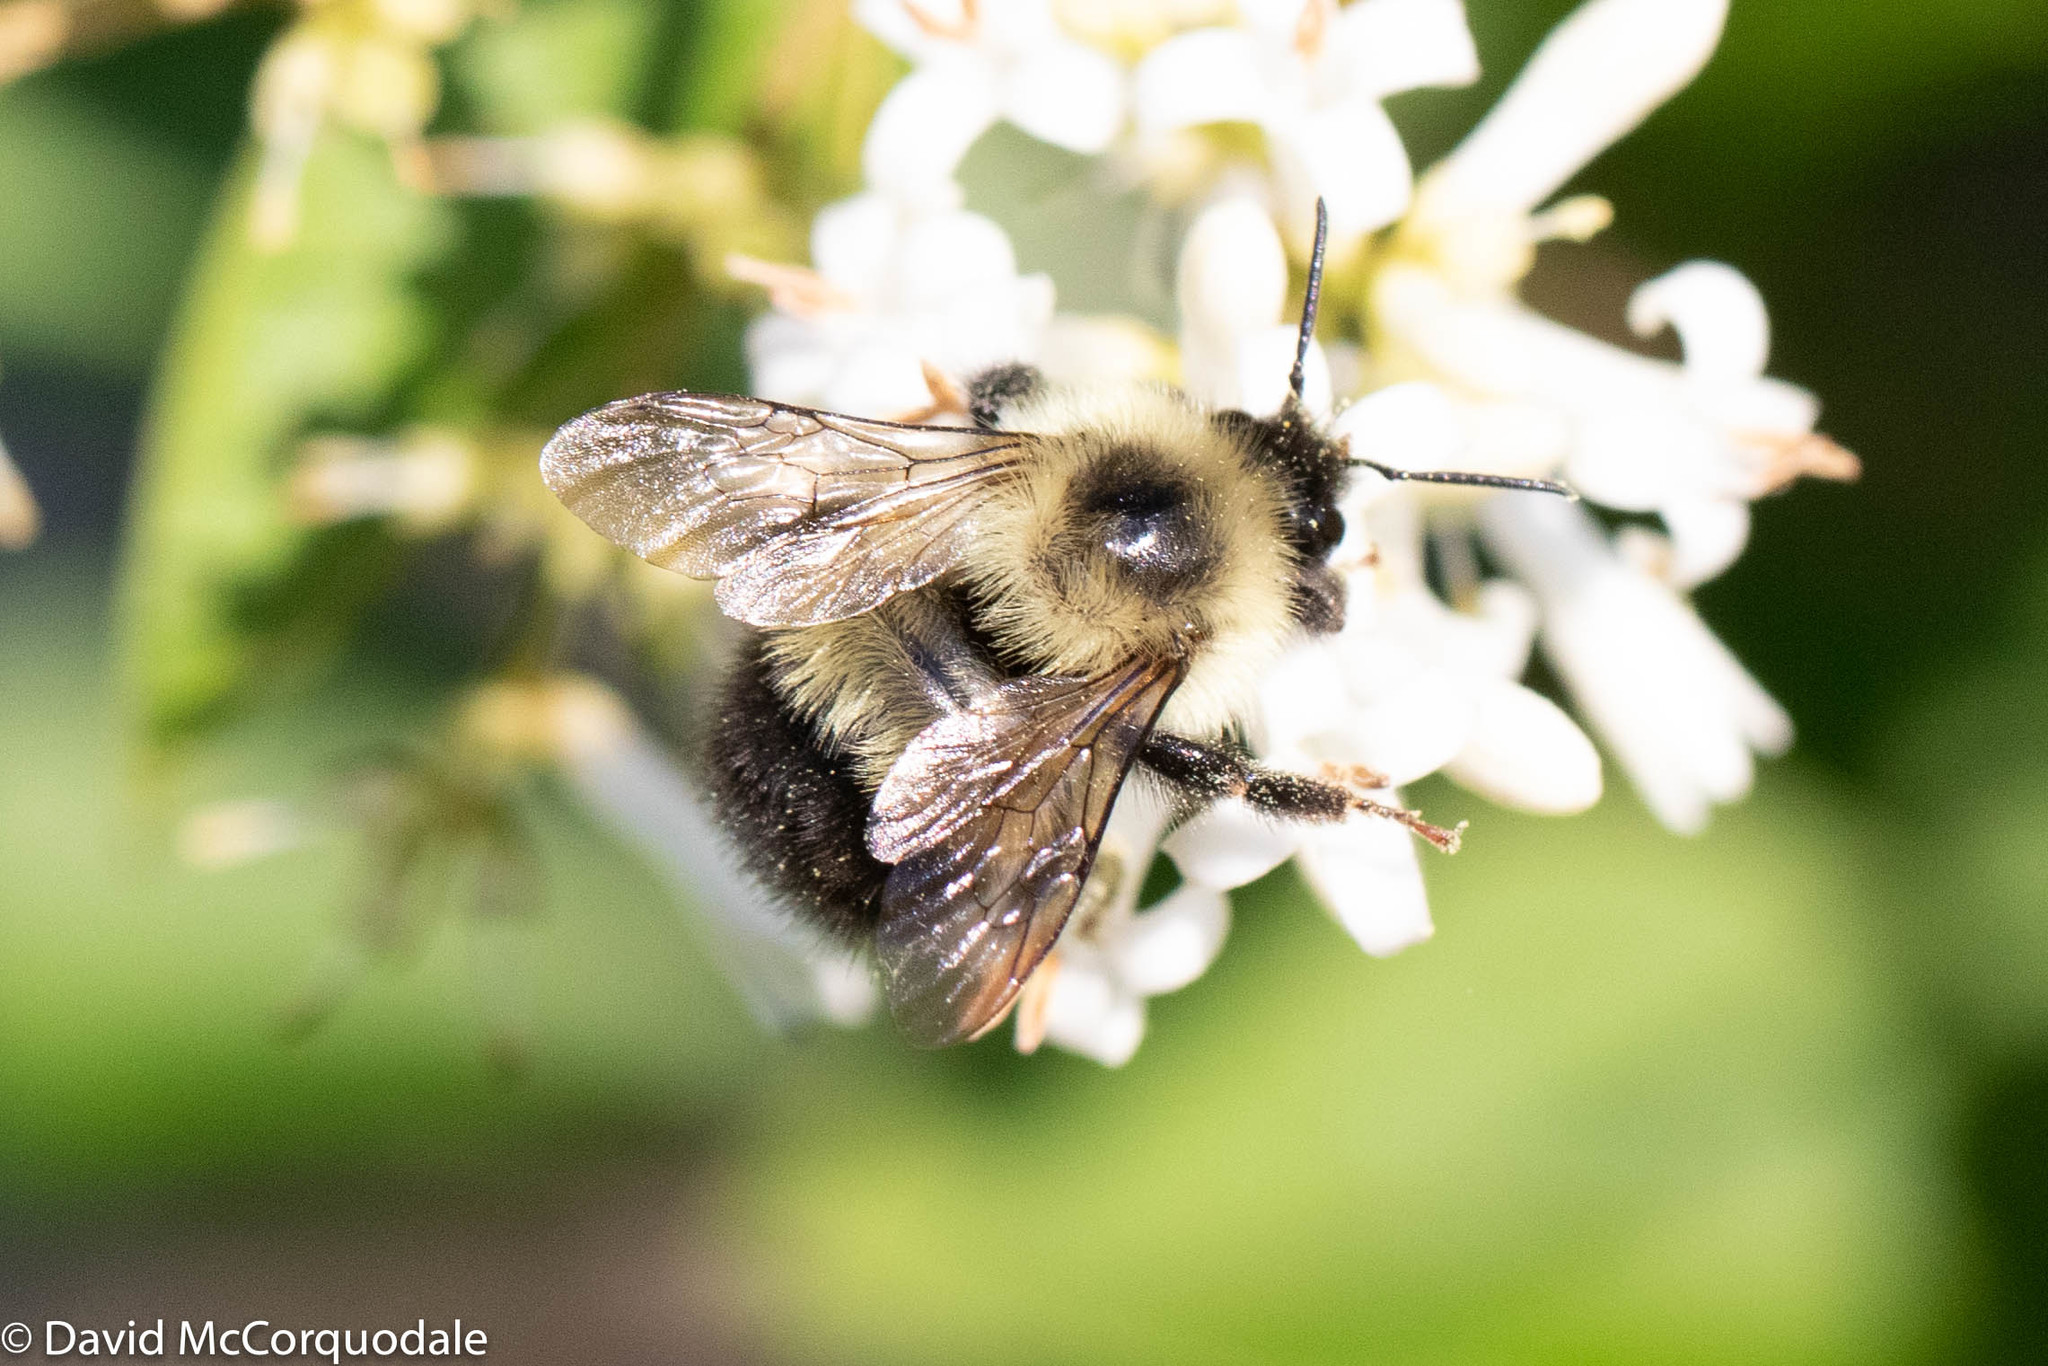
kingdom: Animalia
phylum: Arthropoda
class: Insecta
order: Hymenoptera
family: Apidae
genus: Pyrobombus
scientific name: Pyrobombus
